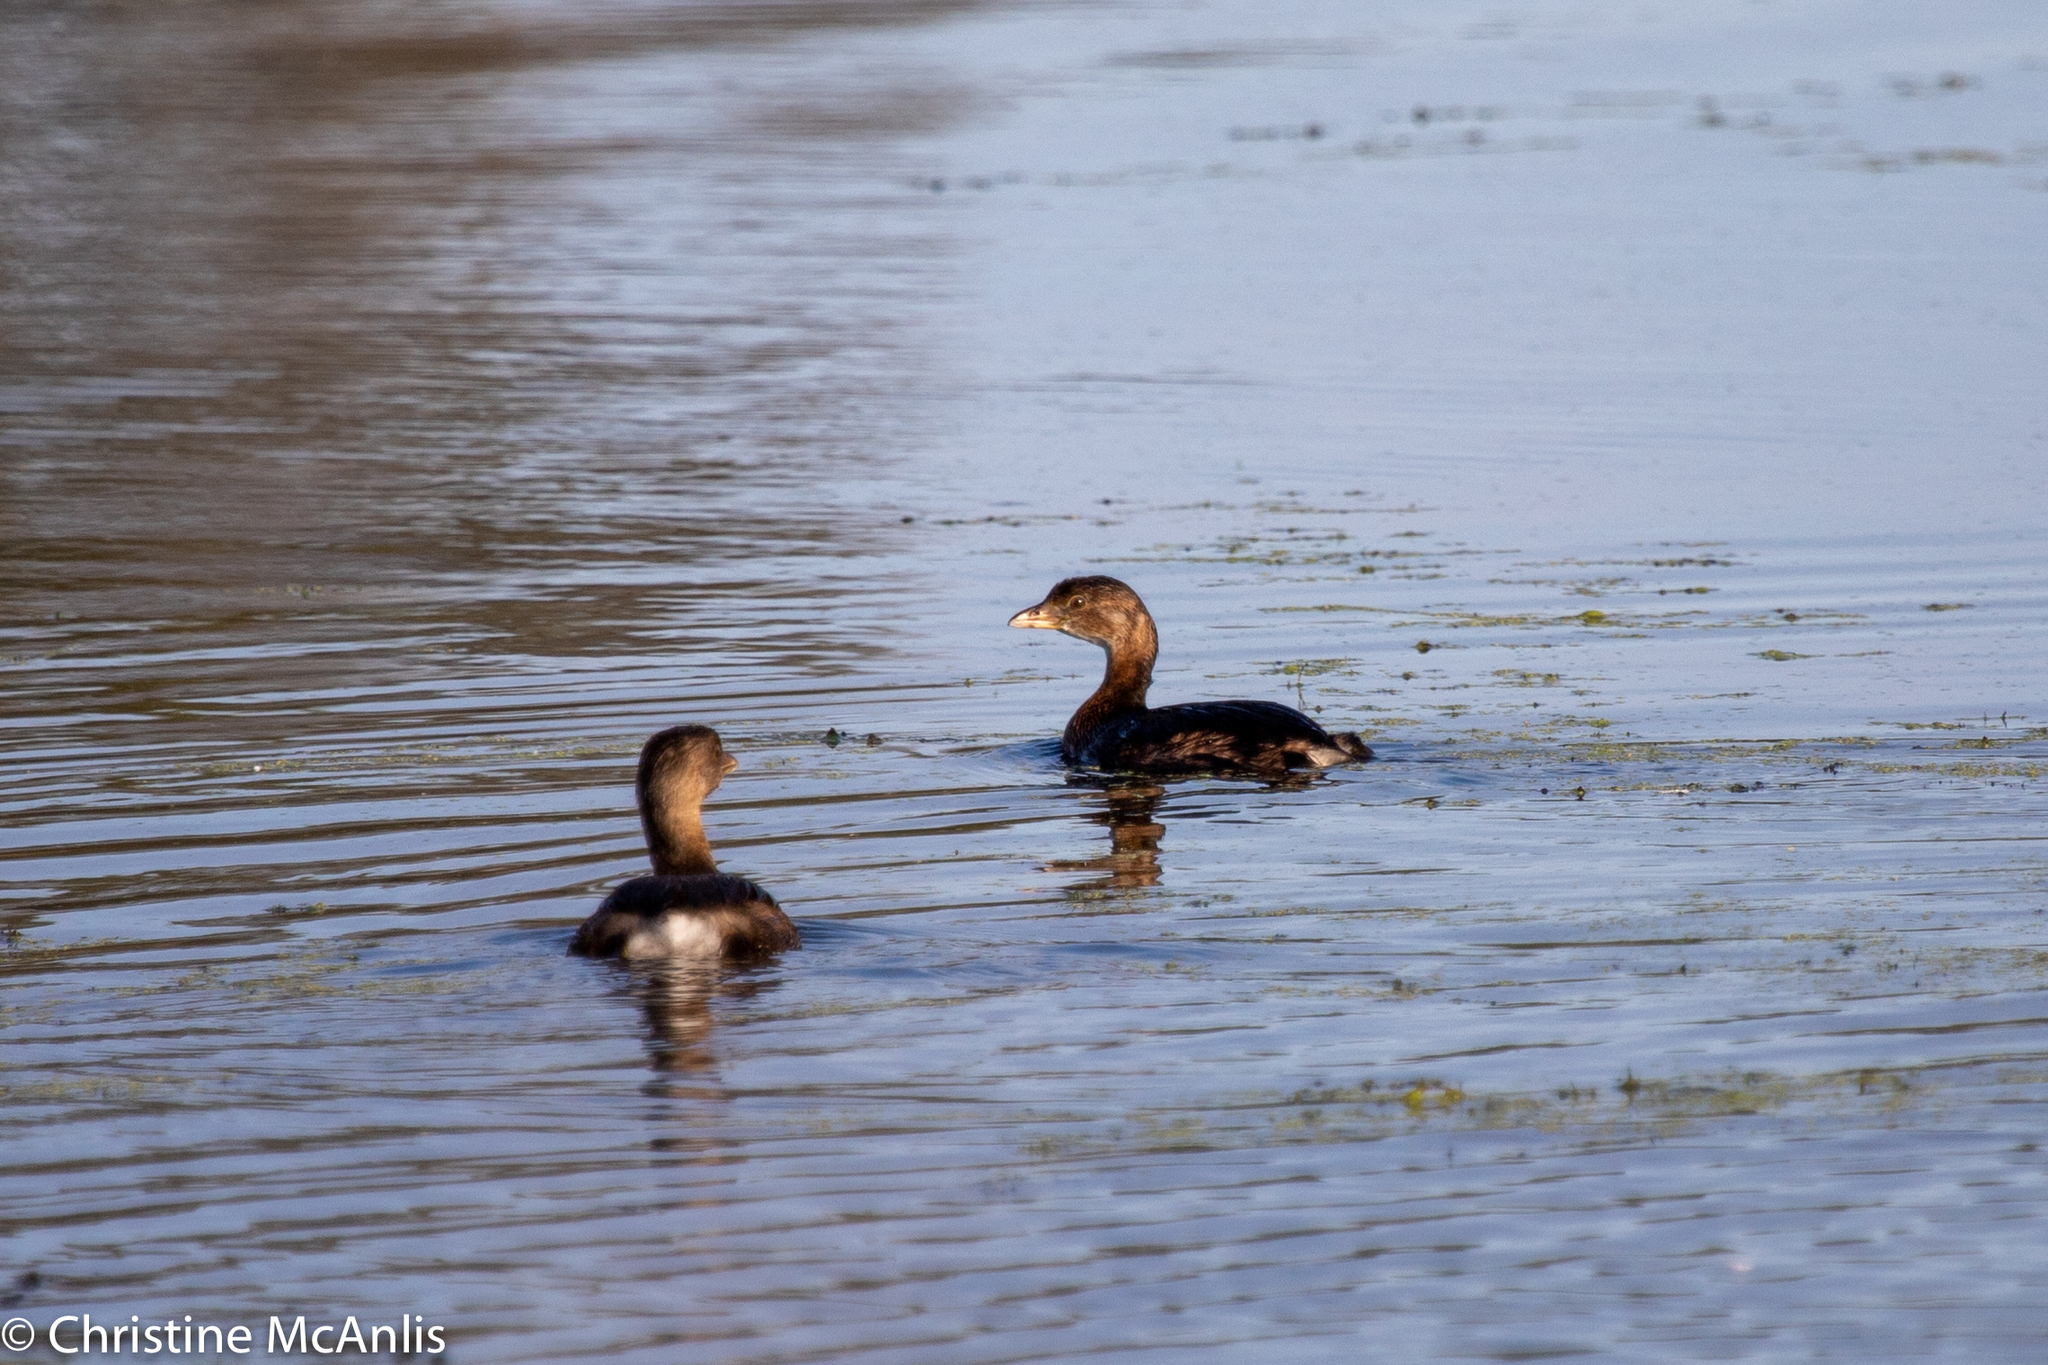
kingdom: Animalia
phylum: Chordata
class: Aves
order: Podicipediformes
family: Podicipedidae
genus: Podilymbus
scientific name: Podilymbus podiceps
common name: Pied-billed grebe
